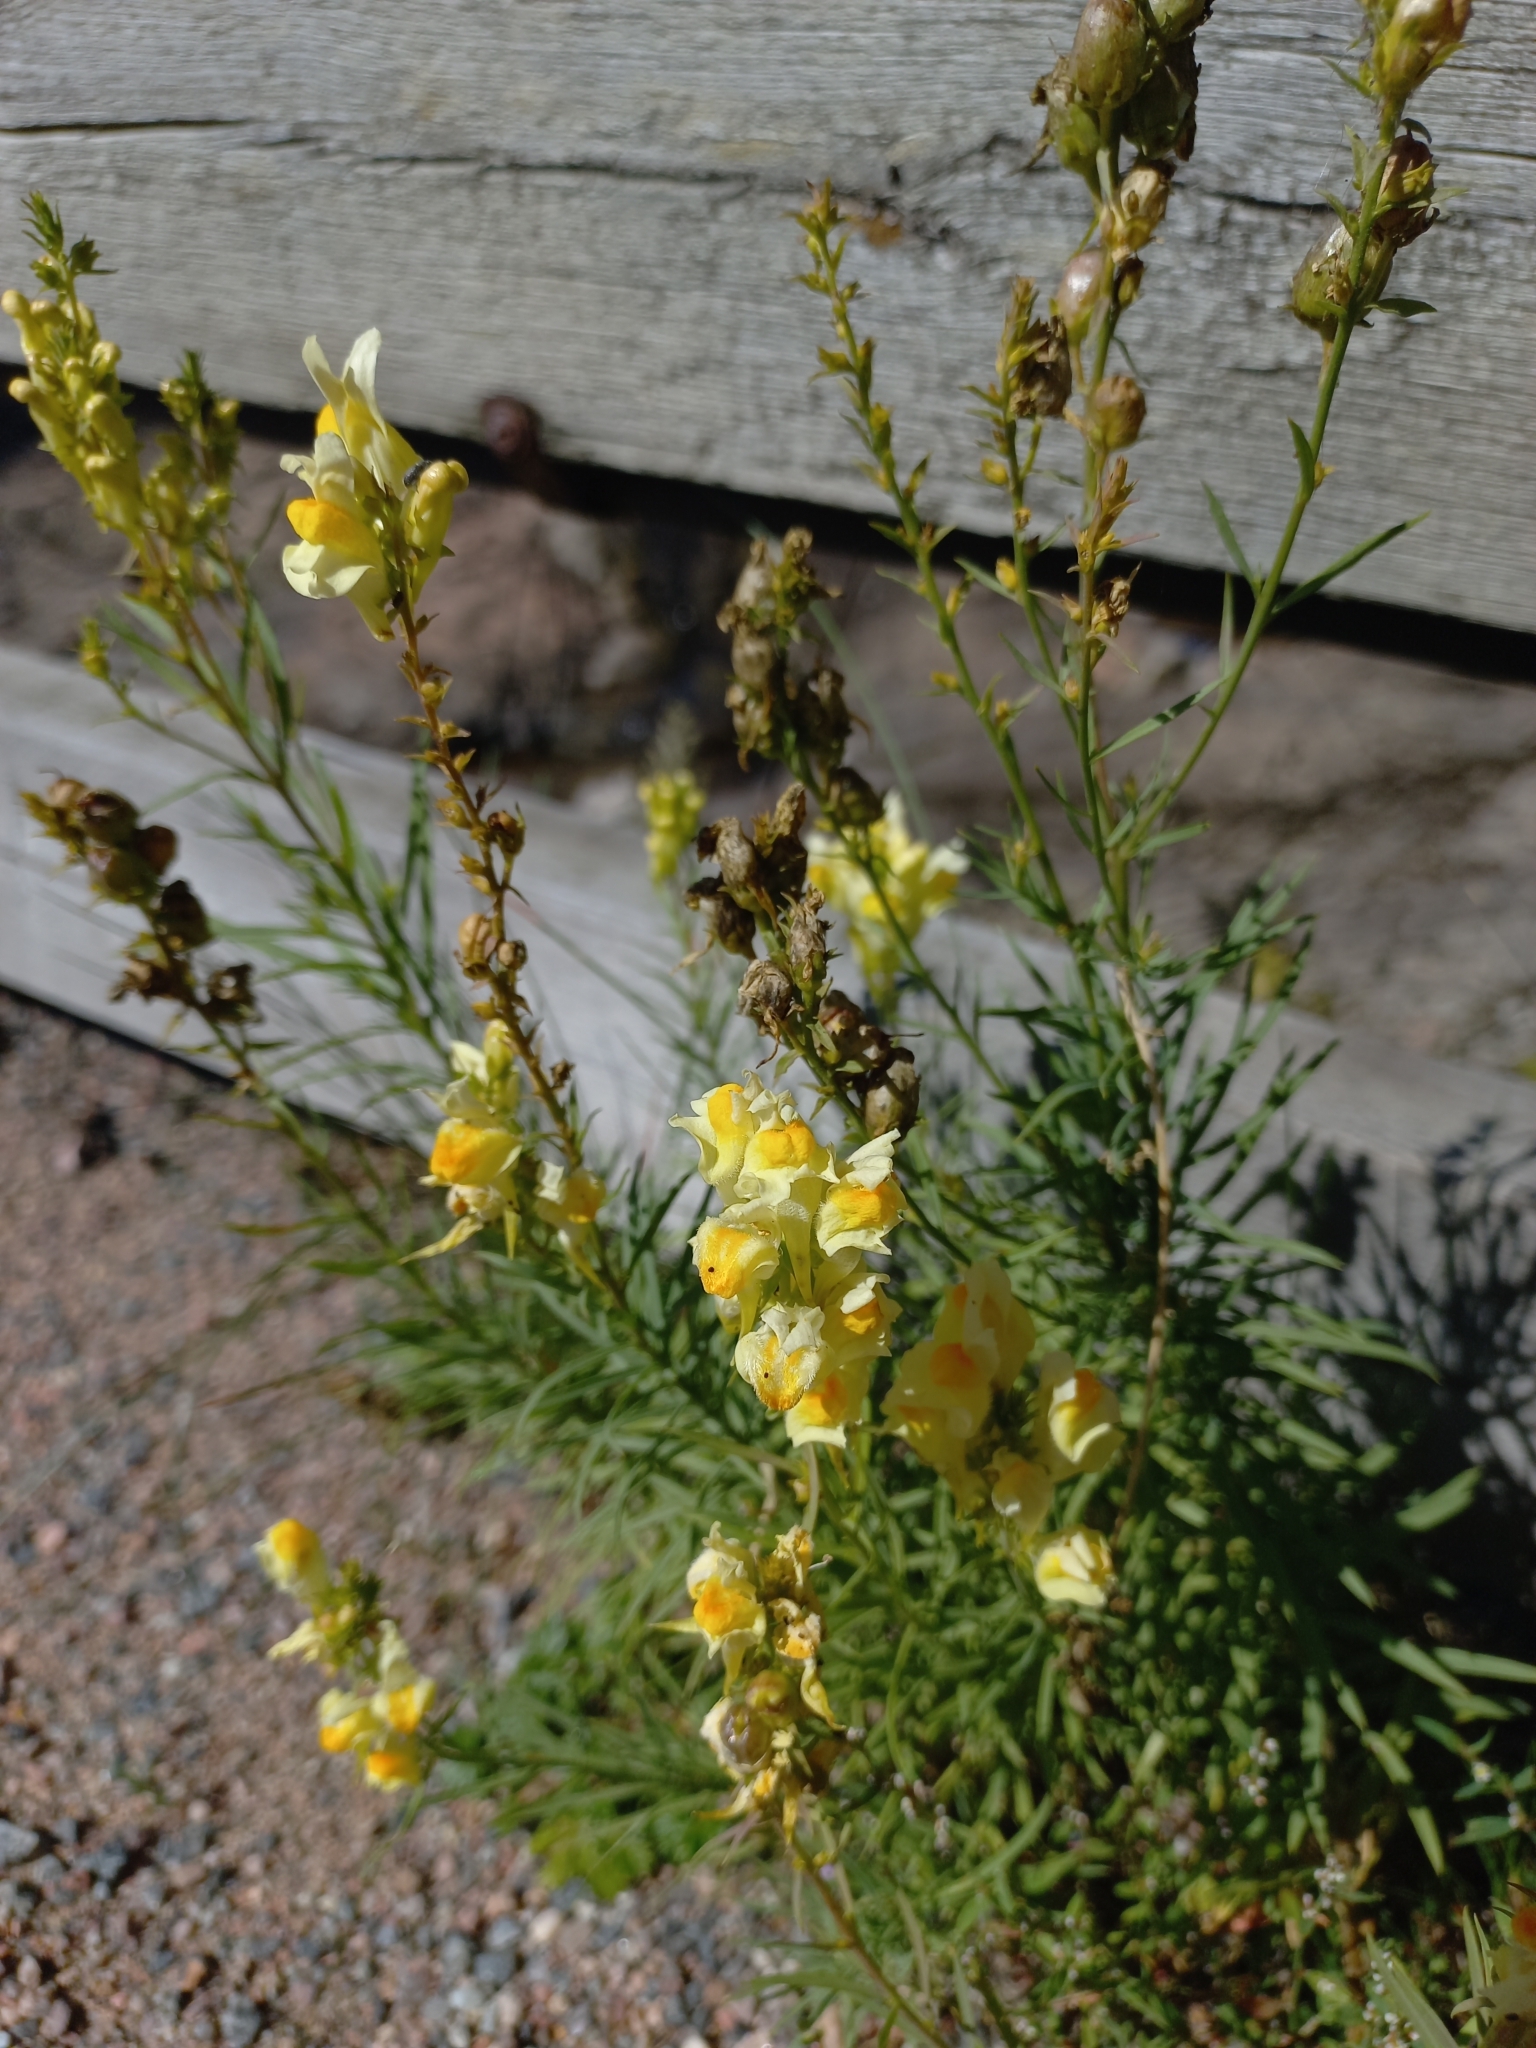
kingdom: Plantae
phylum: Tracheophyta
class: Magnoliopsida
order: Lamiales
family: Plantaginaceae
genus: Linaria
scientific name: Linaria vulgaris
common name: Butter and eggs
